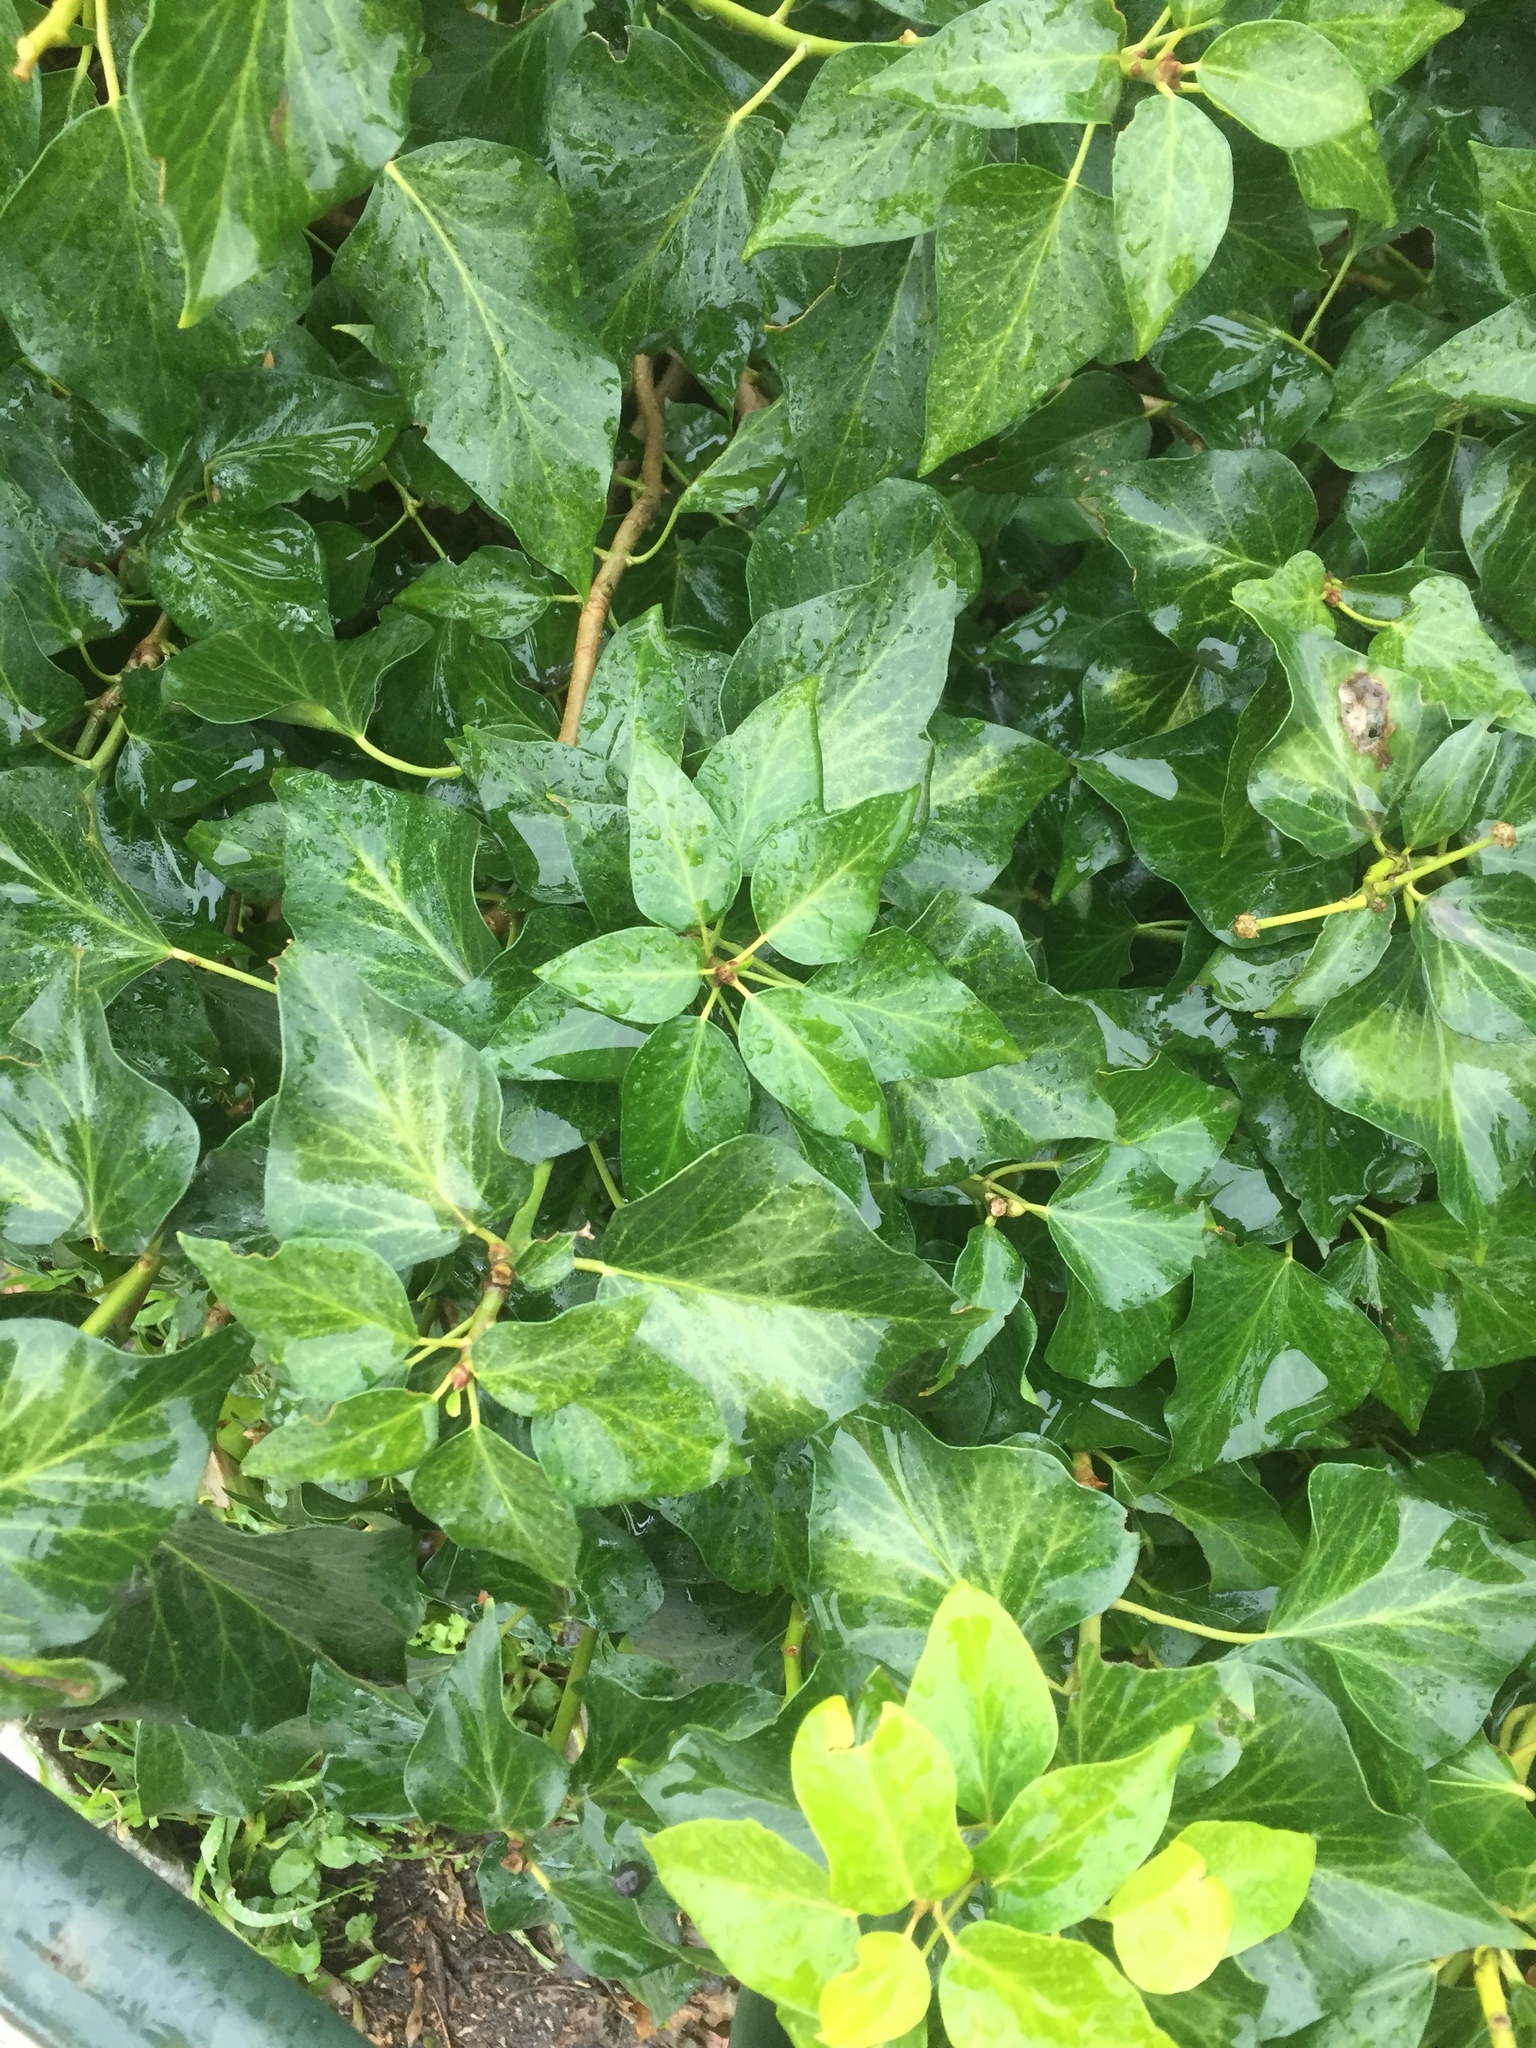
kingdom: Plantae
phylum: Tracheophyta
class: Magnoliopsida
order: Apiales
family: Araliaceae
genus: Hedera
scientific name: Hedera helix
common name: Ivy
